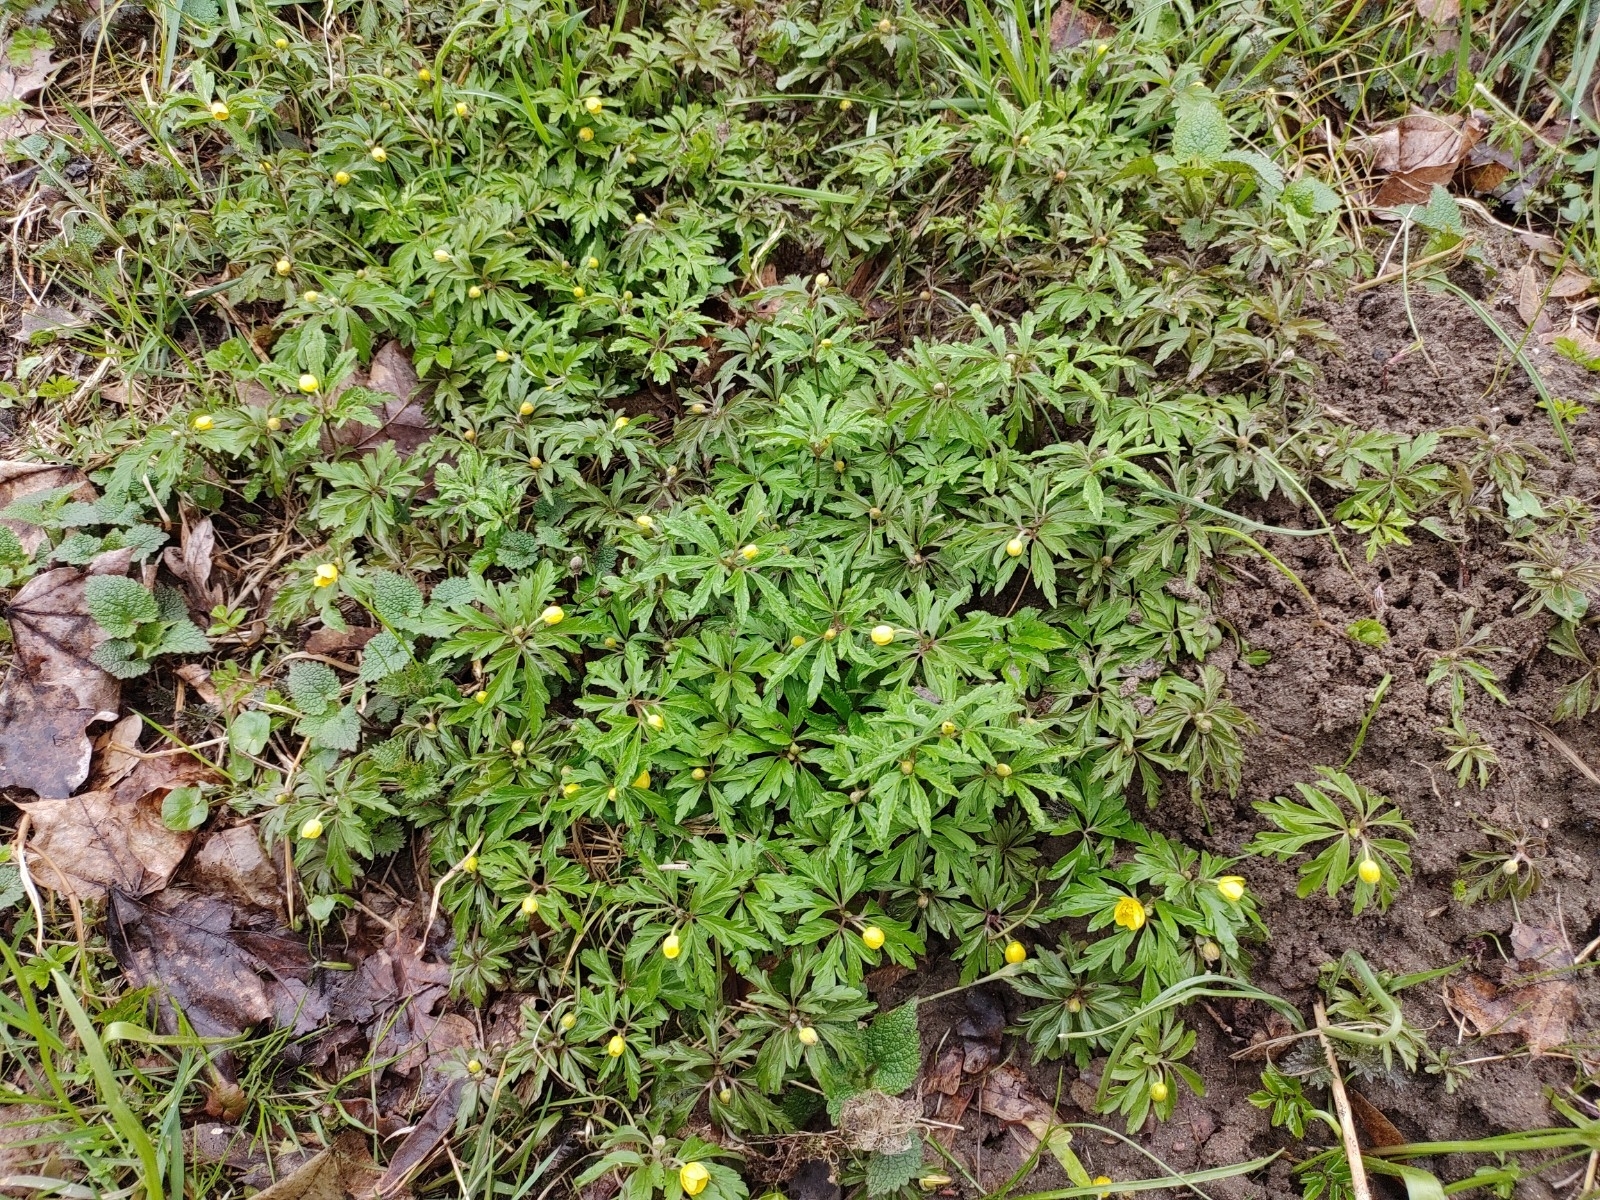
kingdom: Plantae
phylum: Tracheophyta
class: Magnoliopsida
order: Ranunculales
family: Ranunculaceae
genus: Anemone
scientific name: Anemone ranunculoides
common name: Yellow anemone
